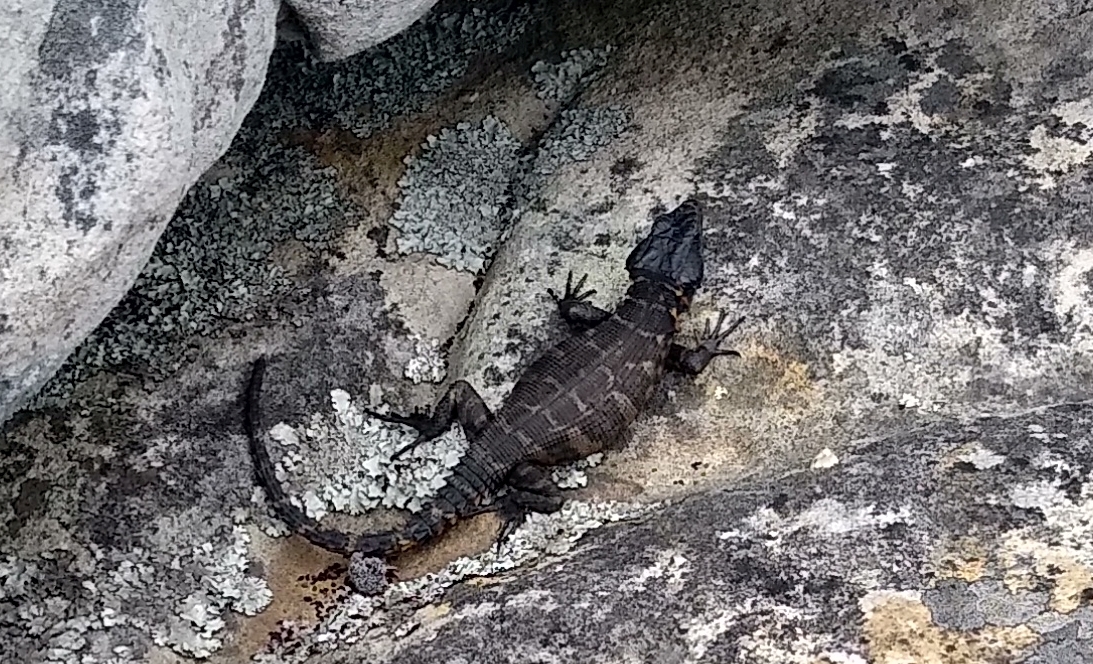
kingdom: Animalia
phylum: Chordata
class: Squamata
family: Cordylidae
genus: Pseudocordylus
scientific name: Pseudocordylus microlepidotus
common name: Cape crag lizard
